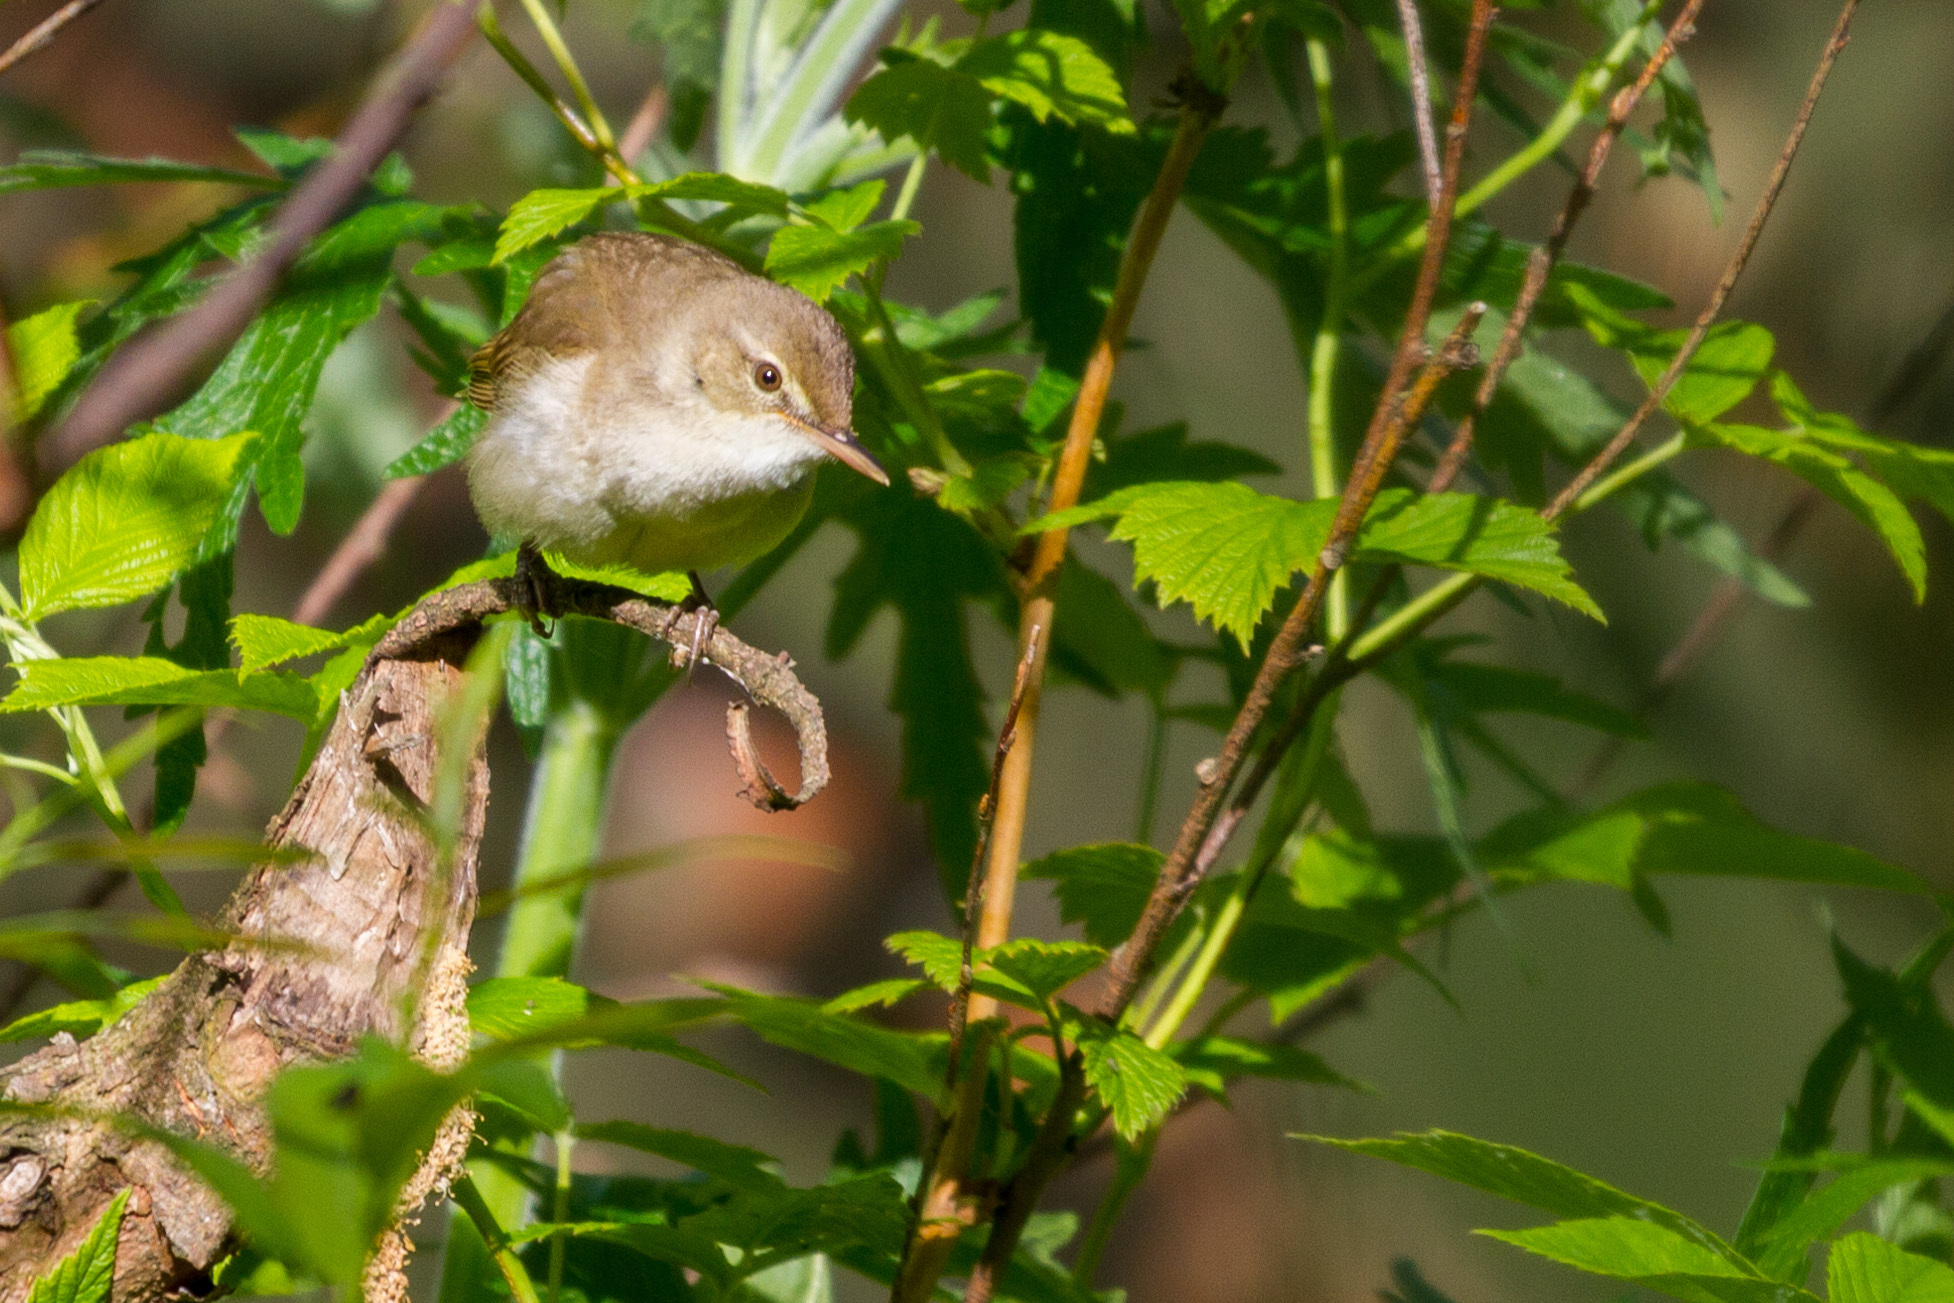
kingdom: Animalia
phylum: Chordata
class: Aves
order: Passeriformes
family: Acrocephalidae
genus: Acrocephalus
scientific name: Acrocephalus dumetorum
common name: Blyth's reed warbler
